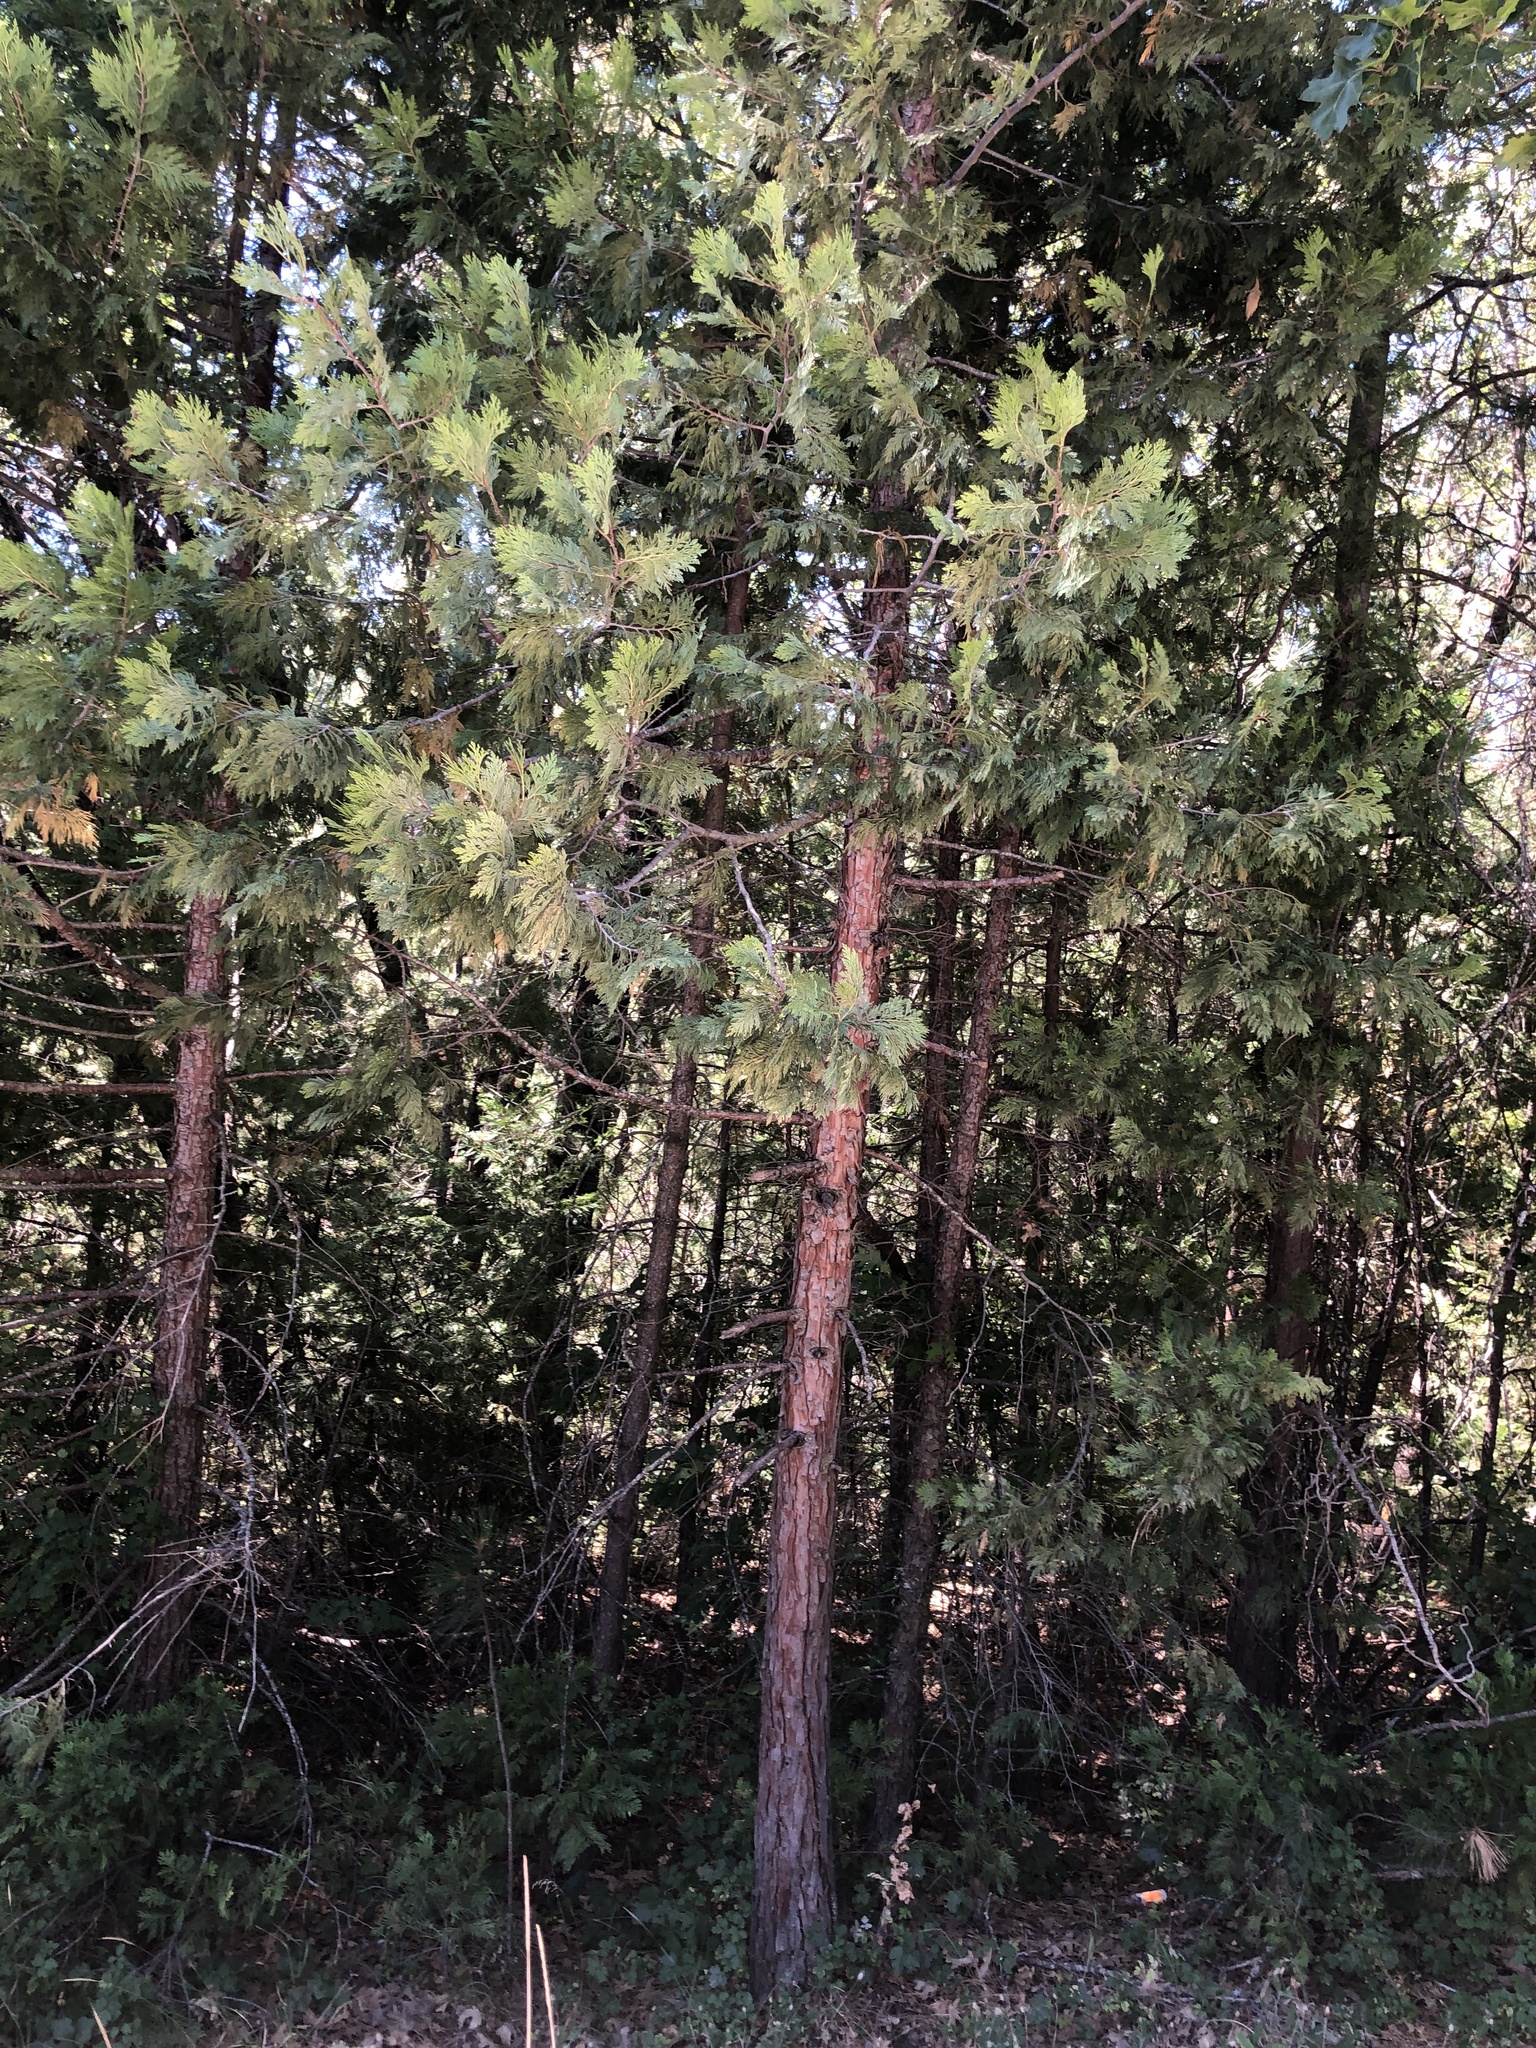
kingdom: Plantae
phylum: Tracheophyta
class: Pinopsida
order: Pinales
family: Cupressaceae
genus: Calocedrus
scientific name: Calocedrus decurrens
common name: Californian incense-cedar
